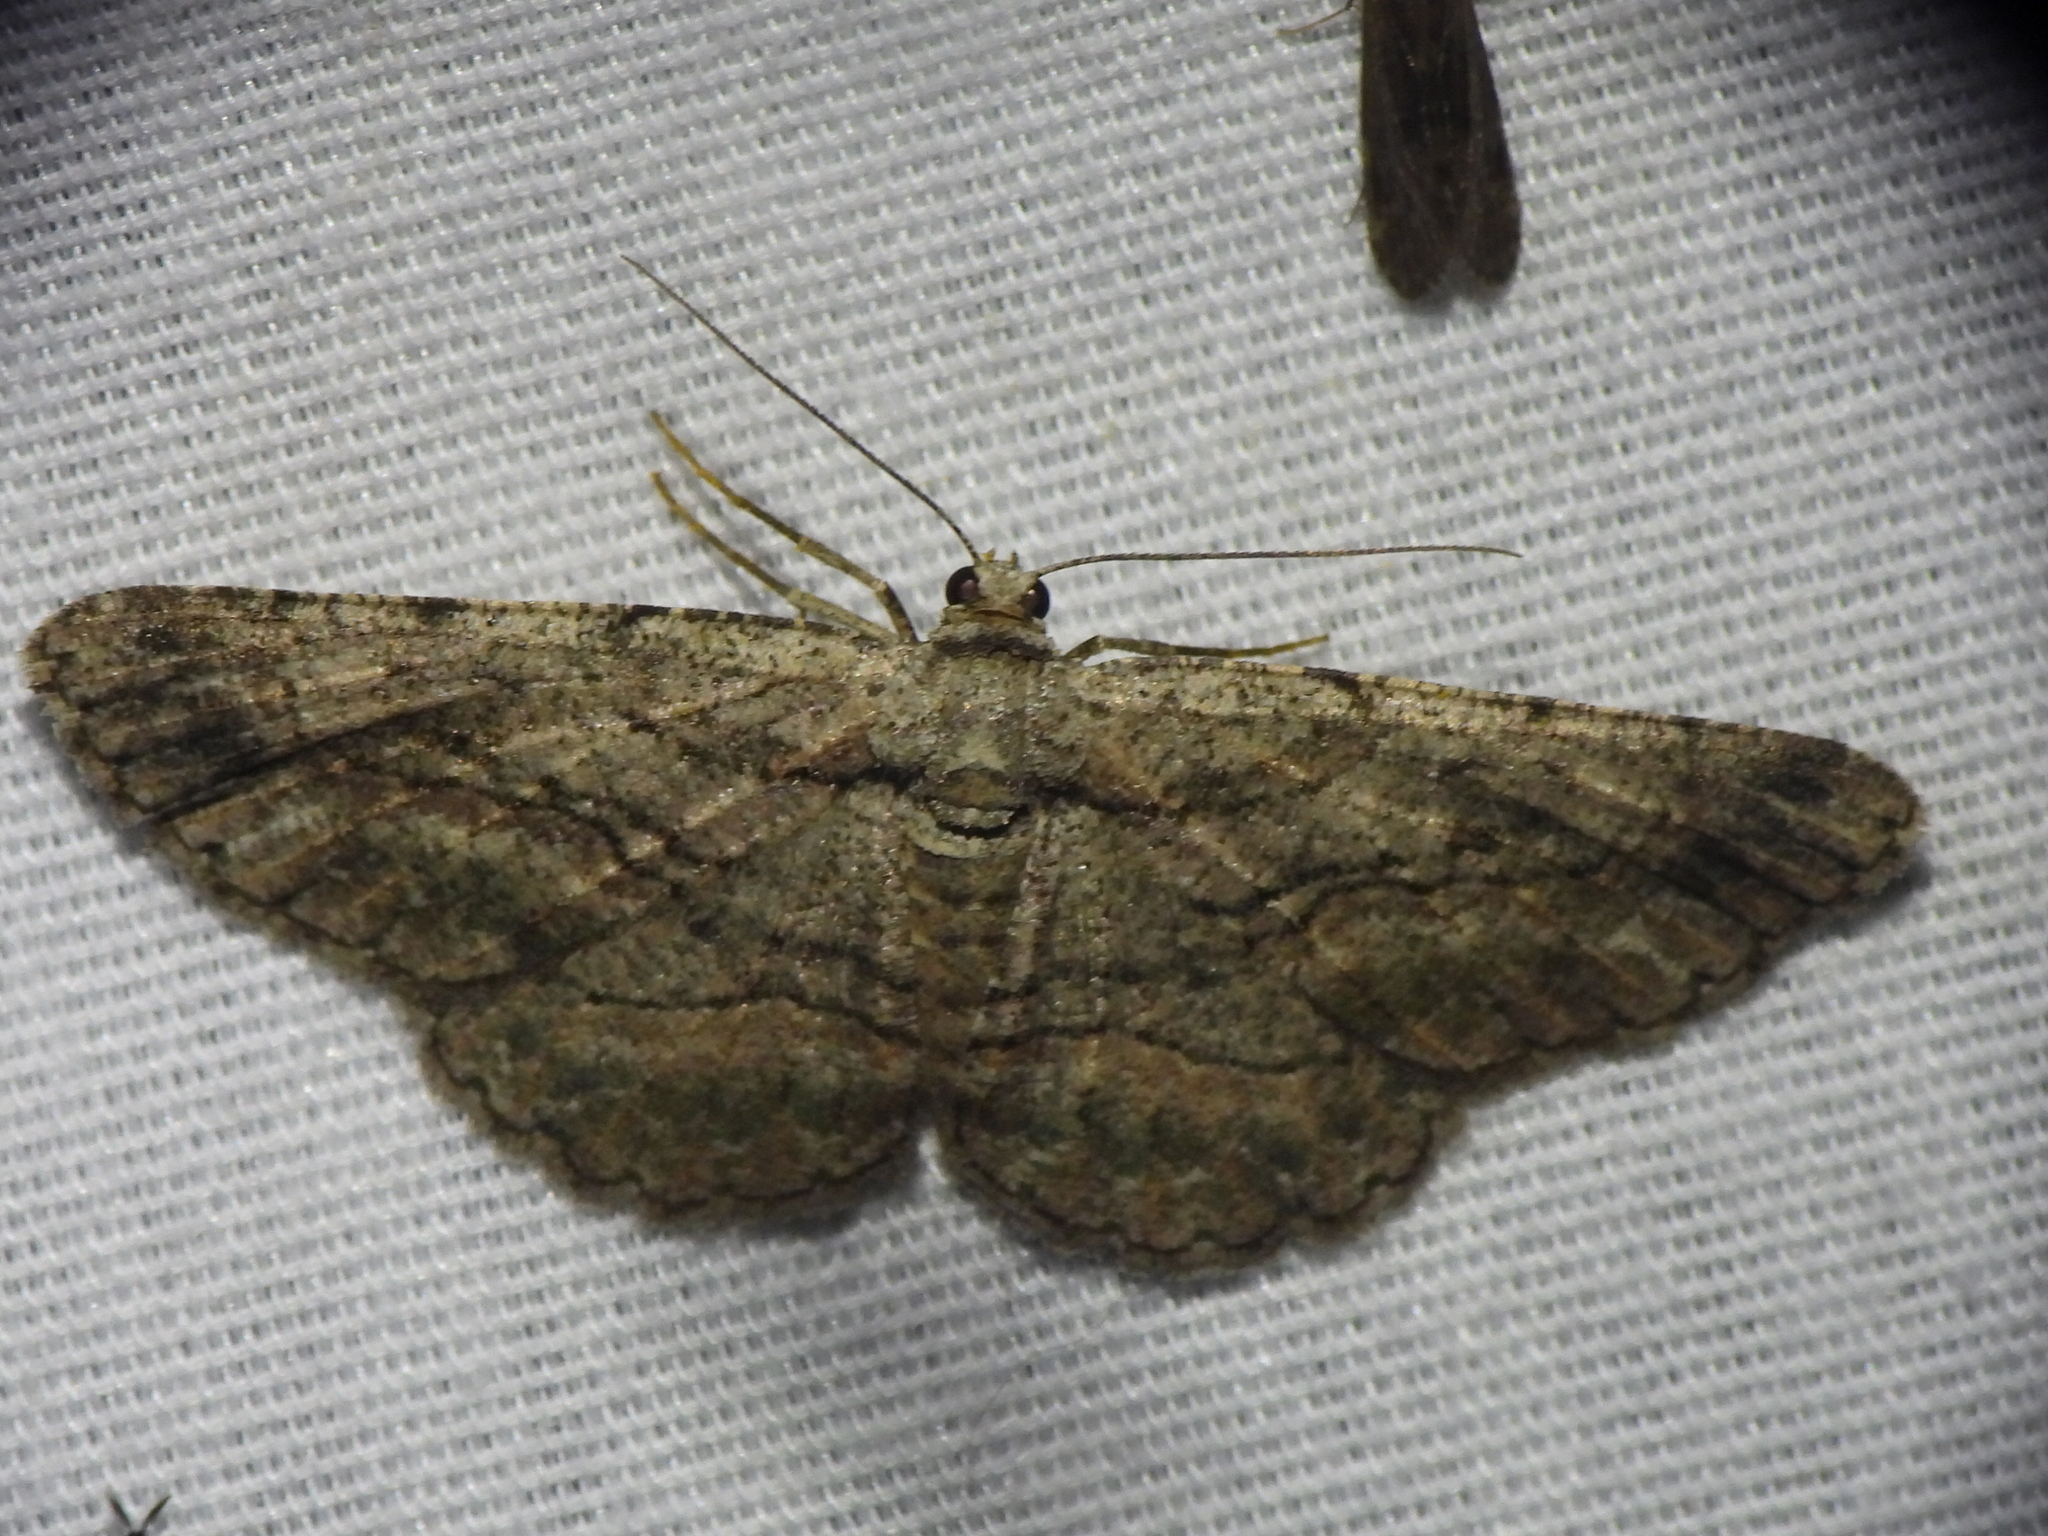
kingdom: Animalia
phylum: Arthropoda
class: Insecta
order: Lepidoptera
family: Geometridae
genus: Anavitrinella
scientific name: Anavitrinella pampinaria
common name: Common gray
